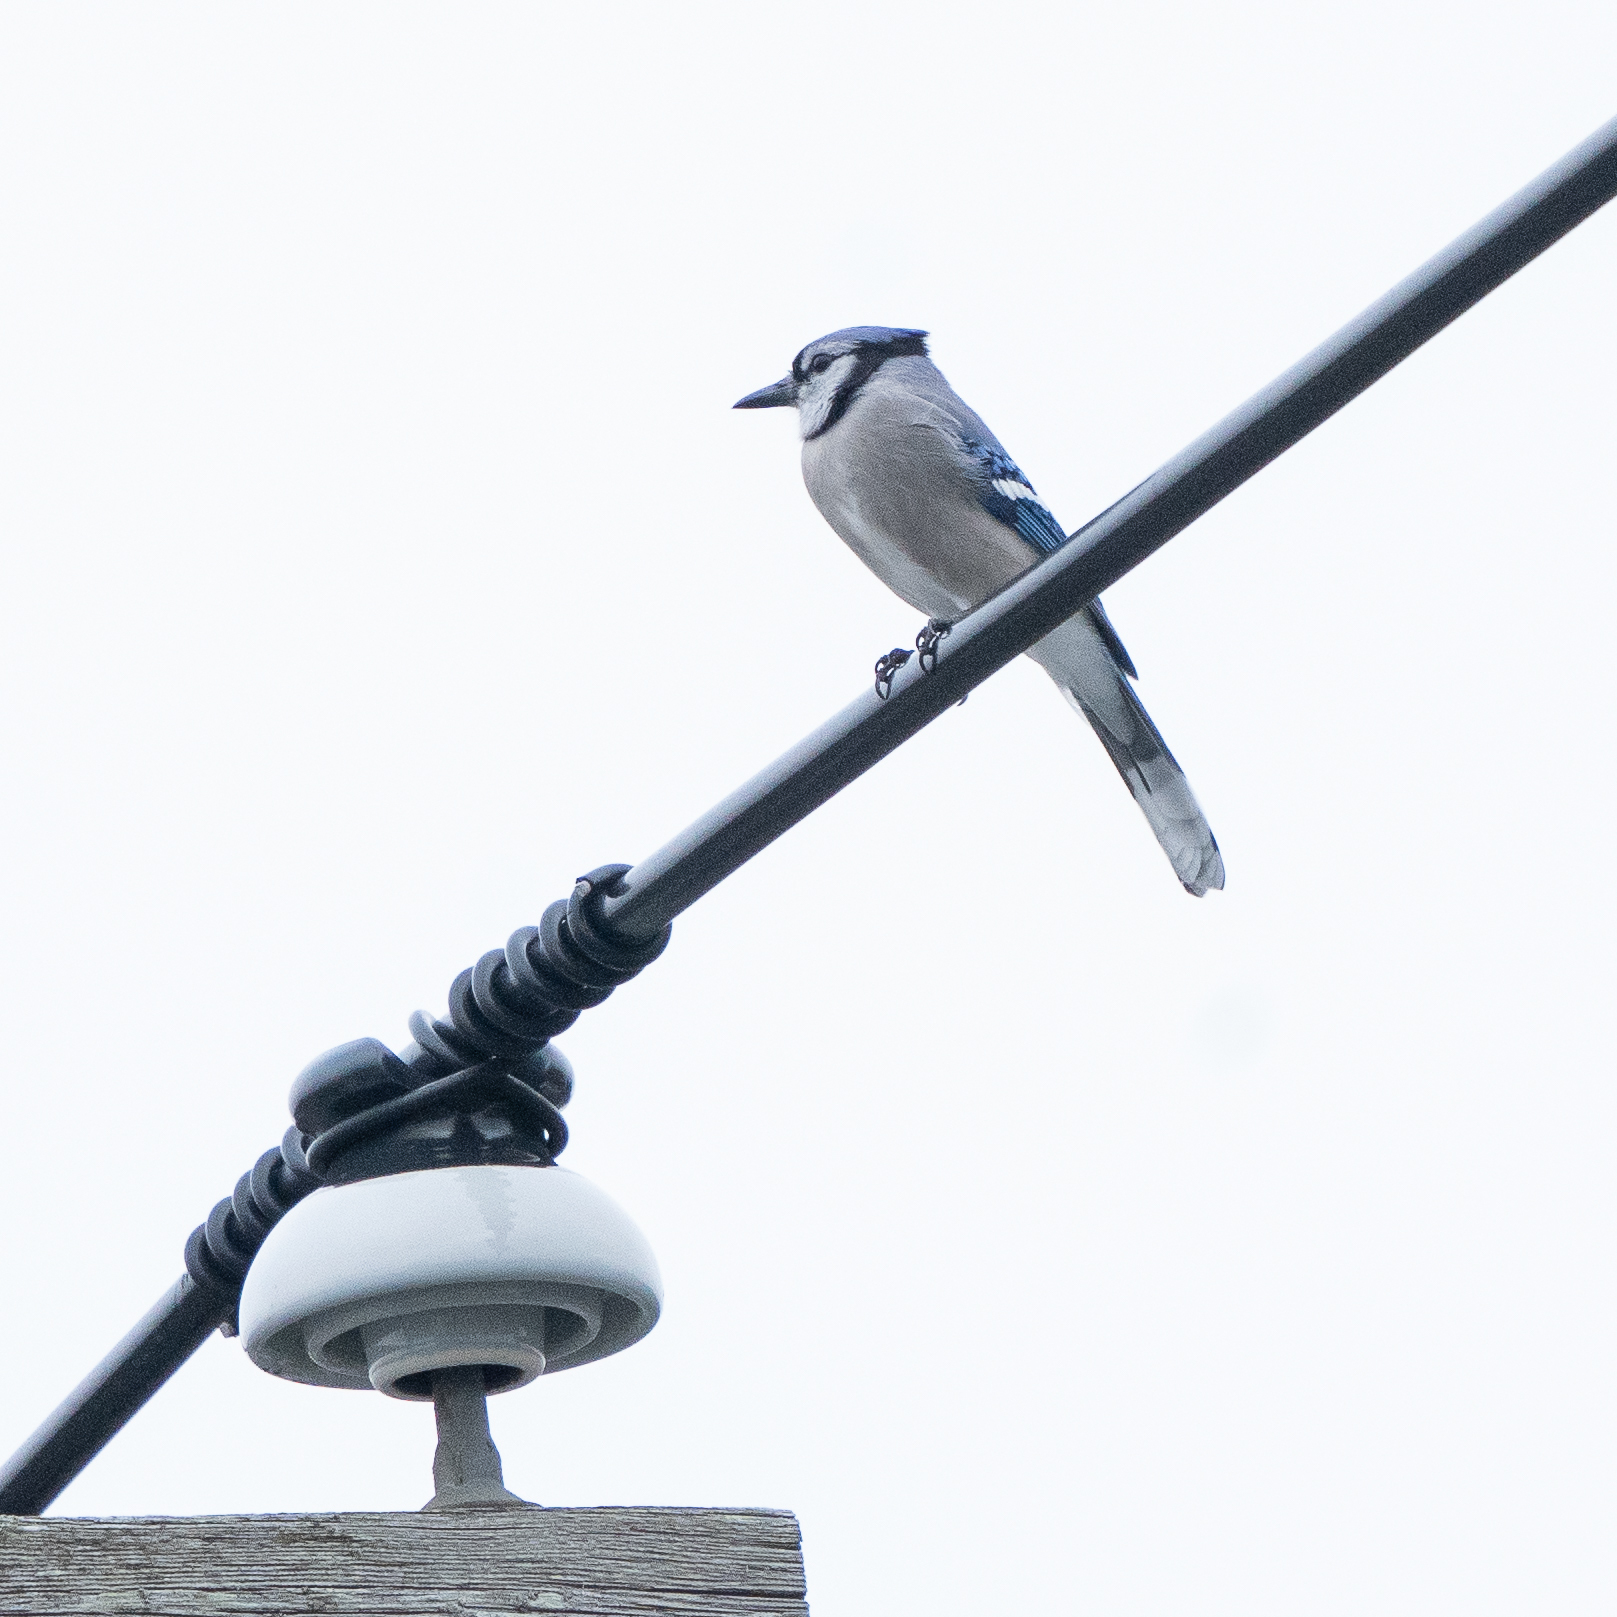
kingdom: Animalia
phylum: Chordata
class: Aves
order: Passeriformes
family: Corvidae
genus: Cyanocitta
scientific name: Cyanocitta cristata
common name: Blue jay
